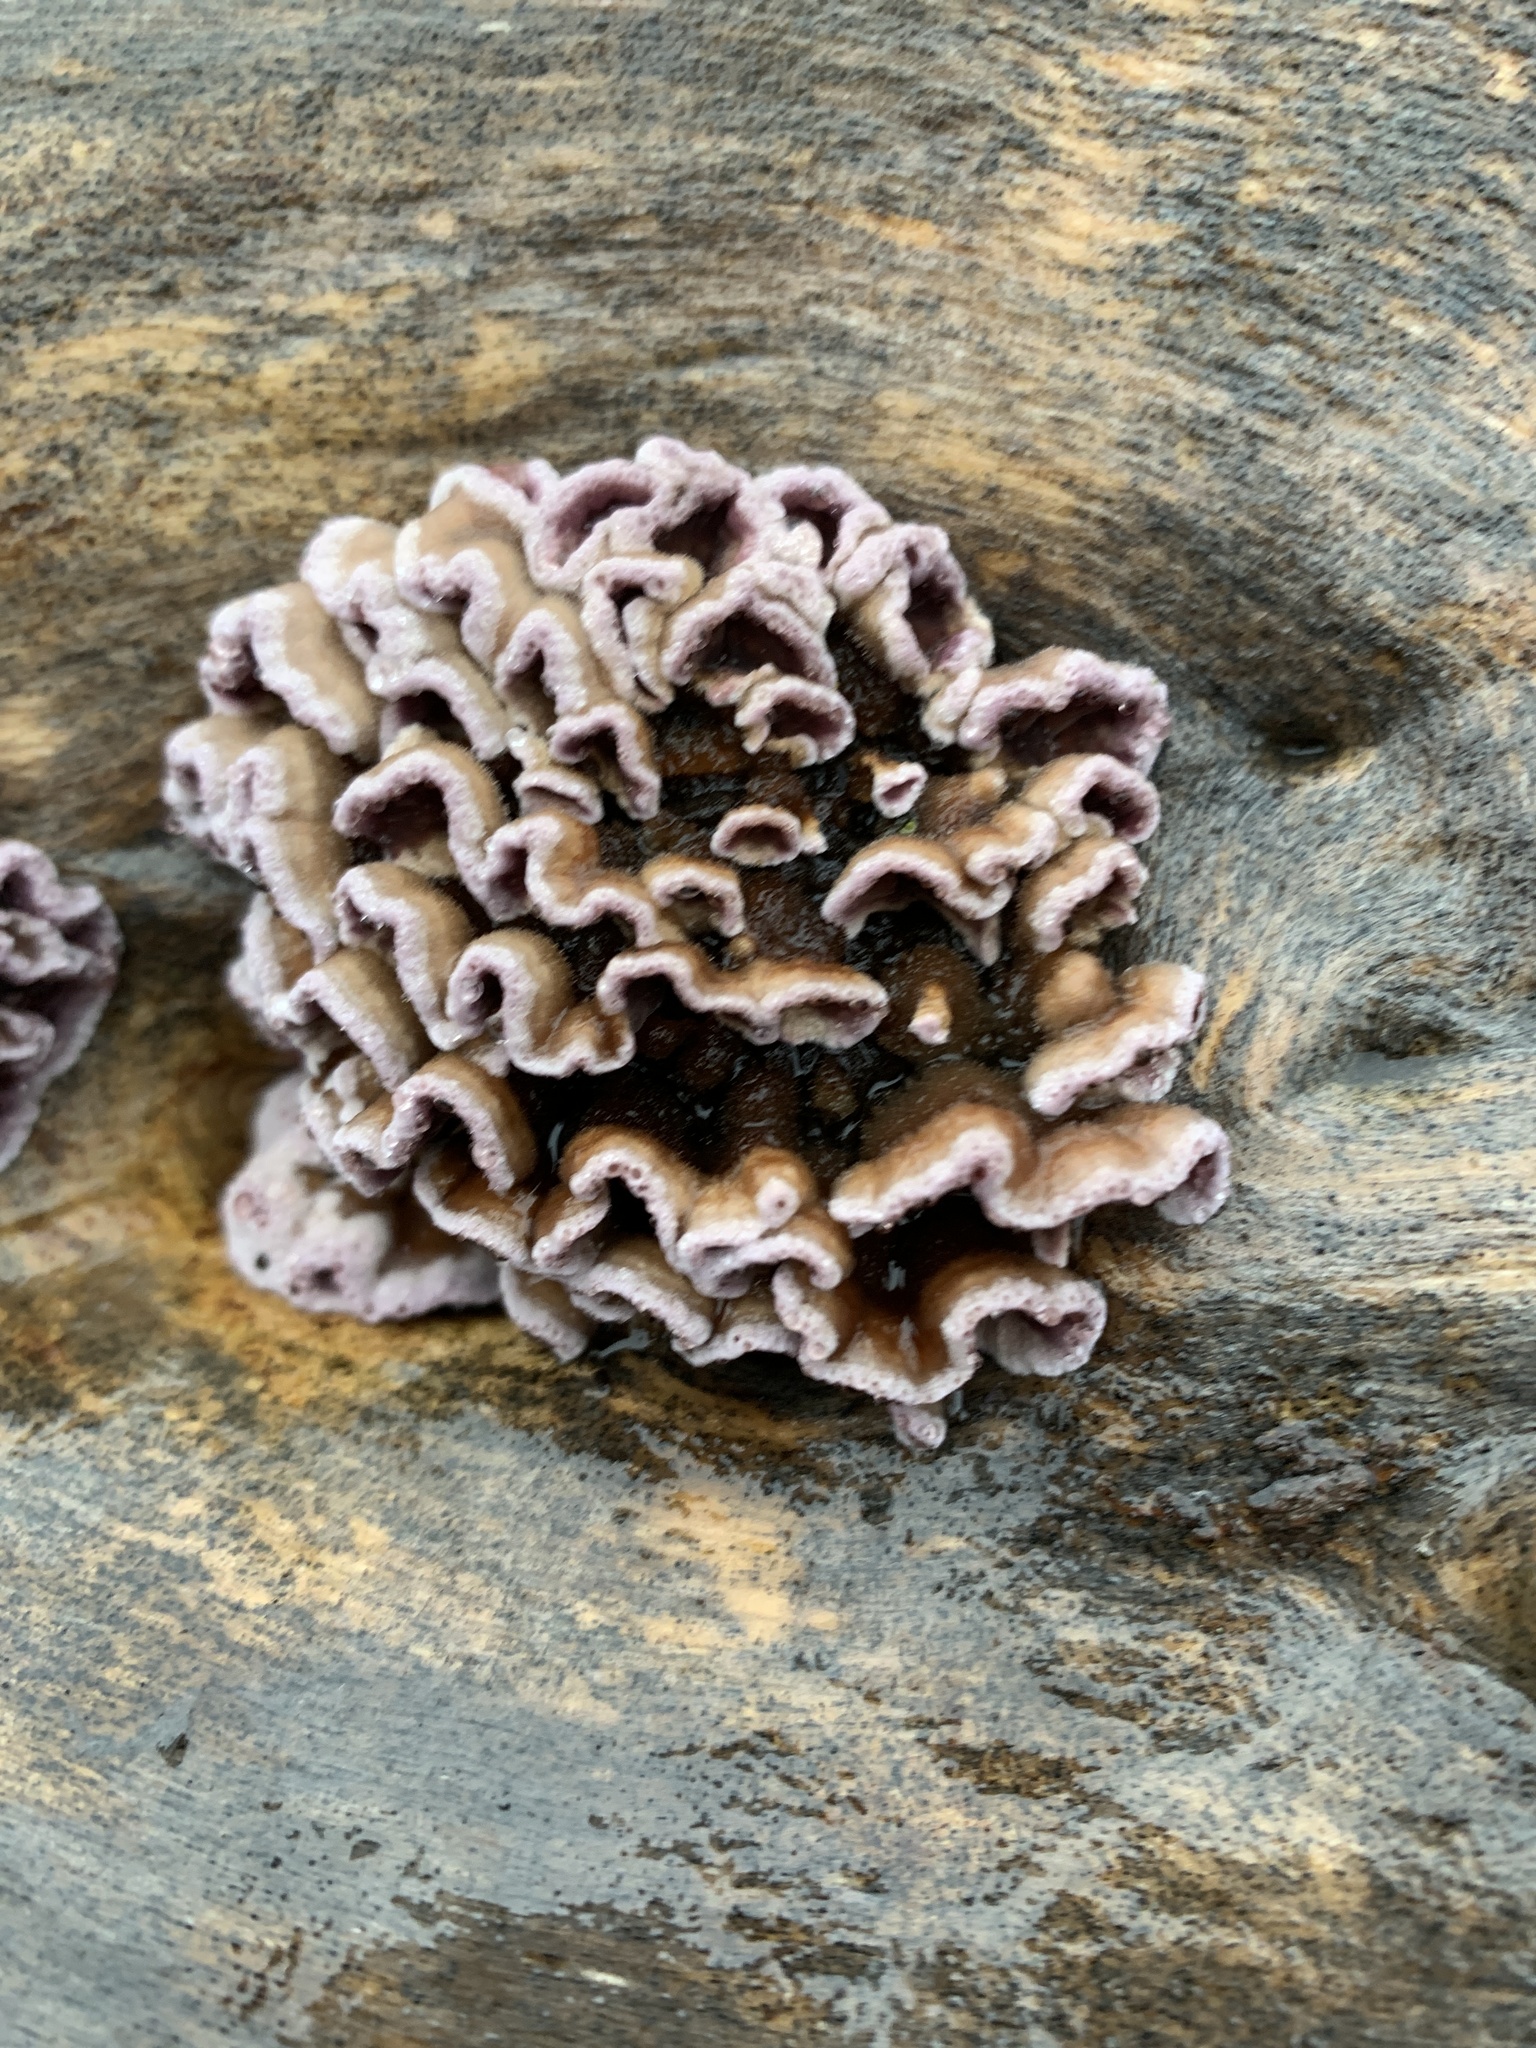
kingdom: Fungi
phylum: Basidiomycota
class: Agaricomycetes
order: Agaricales
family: Cyphellaceae
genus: Chondrostereum
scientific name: Chondrostereum purpureum
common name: Silver leaf disease
